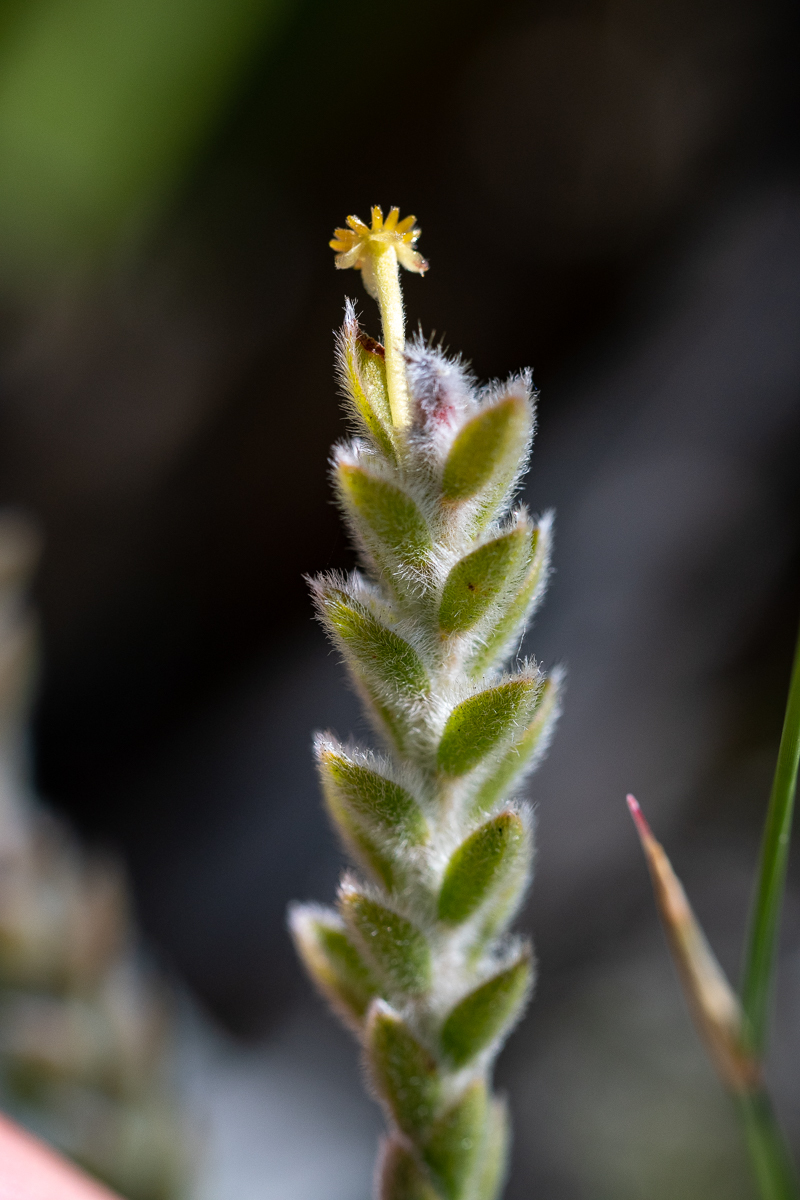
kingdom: Plantae
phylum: Tracheophyta
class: Magnoliopsida
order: Malvales
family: Thymelaeaceae
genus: Struthiola
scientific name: Struthiola tomentosa
